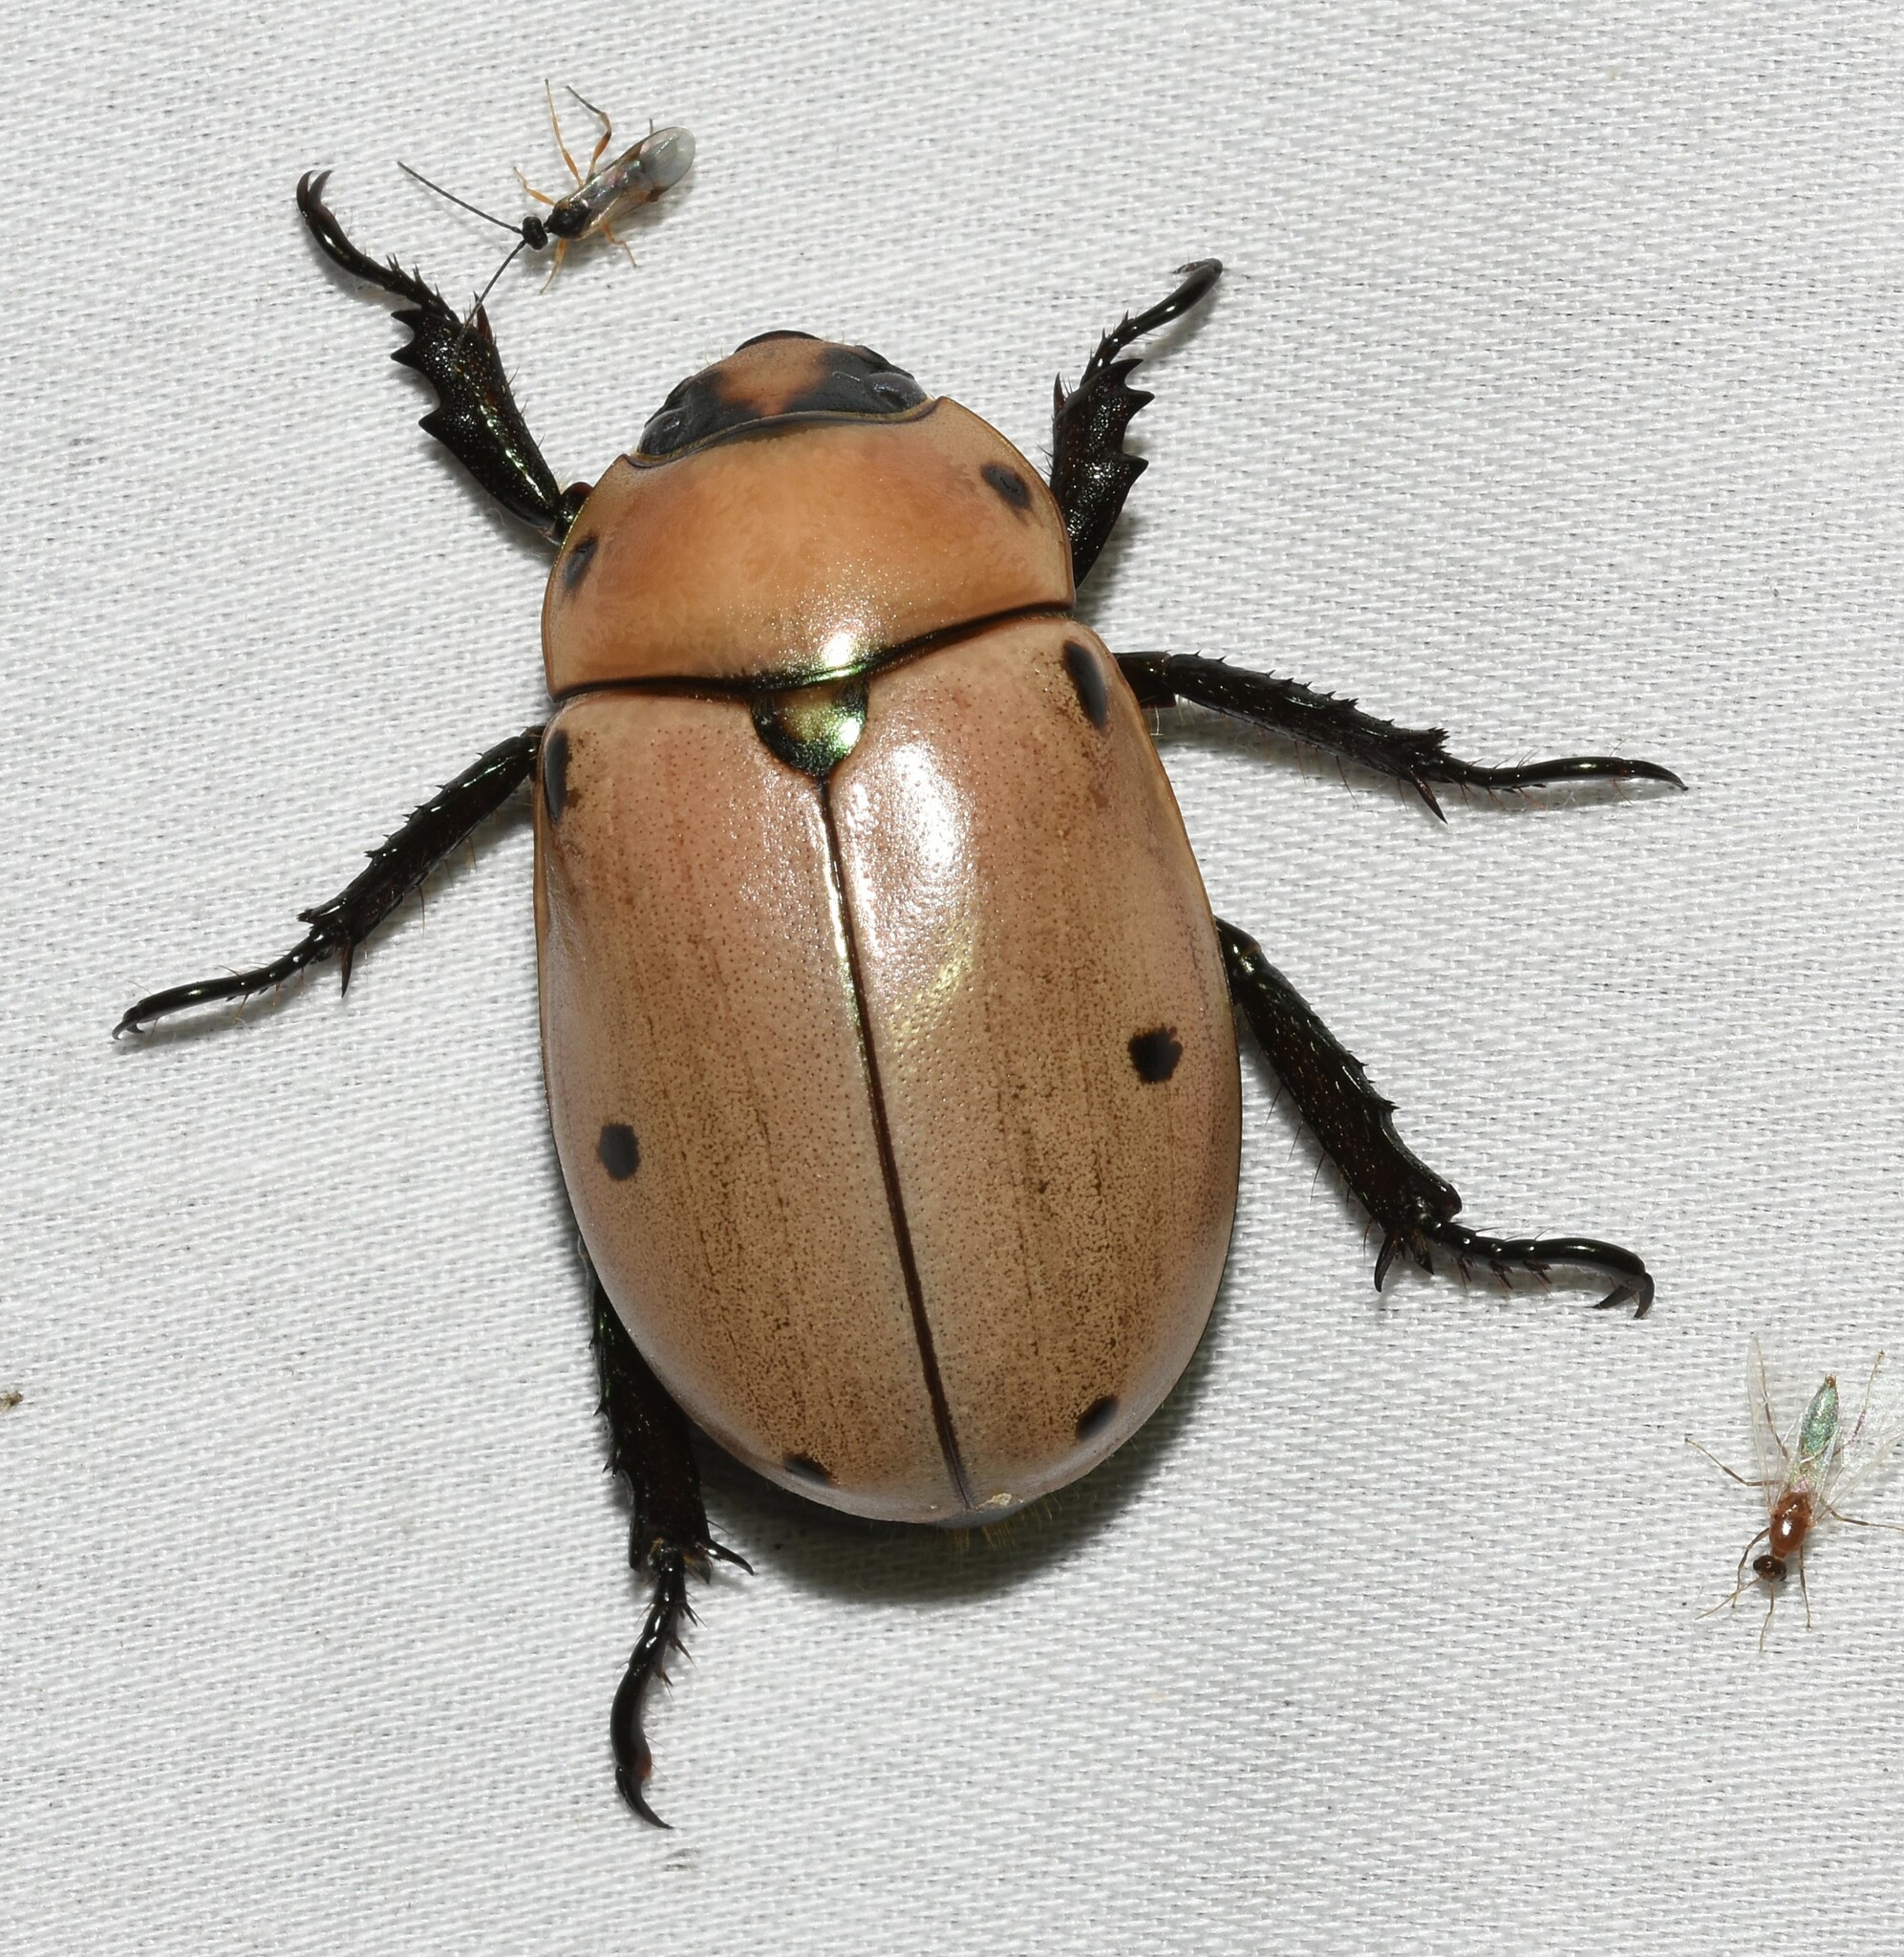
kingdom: Animalia
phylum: Arthropoda
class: Insecta
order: Coleoptera
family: Scarabaeidae
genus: Pelidnota
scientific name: Pelidnota punctata
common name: Grapevine beetle
